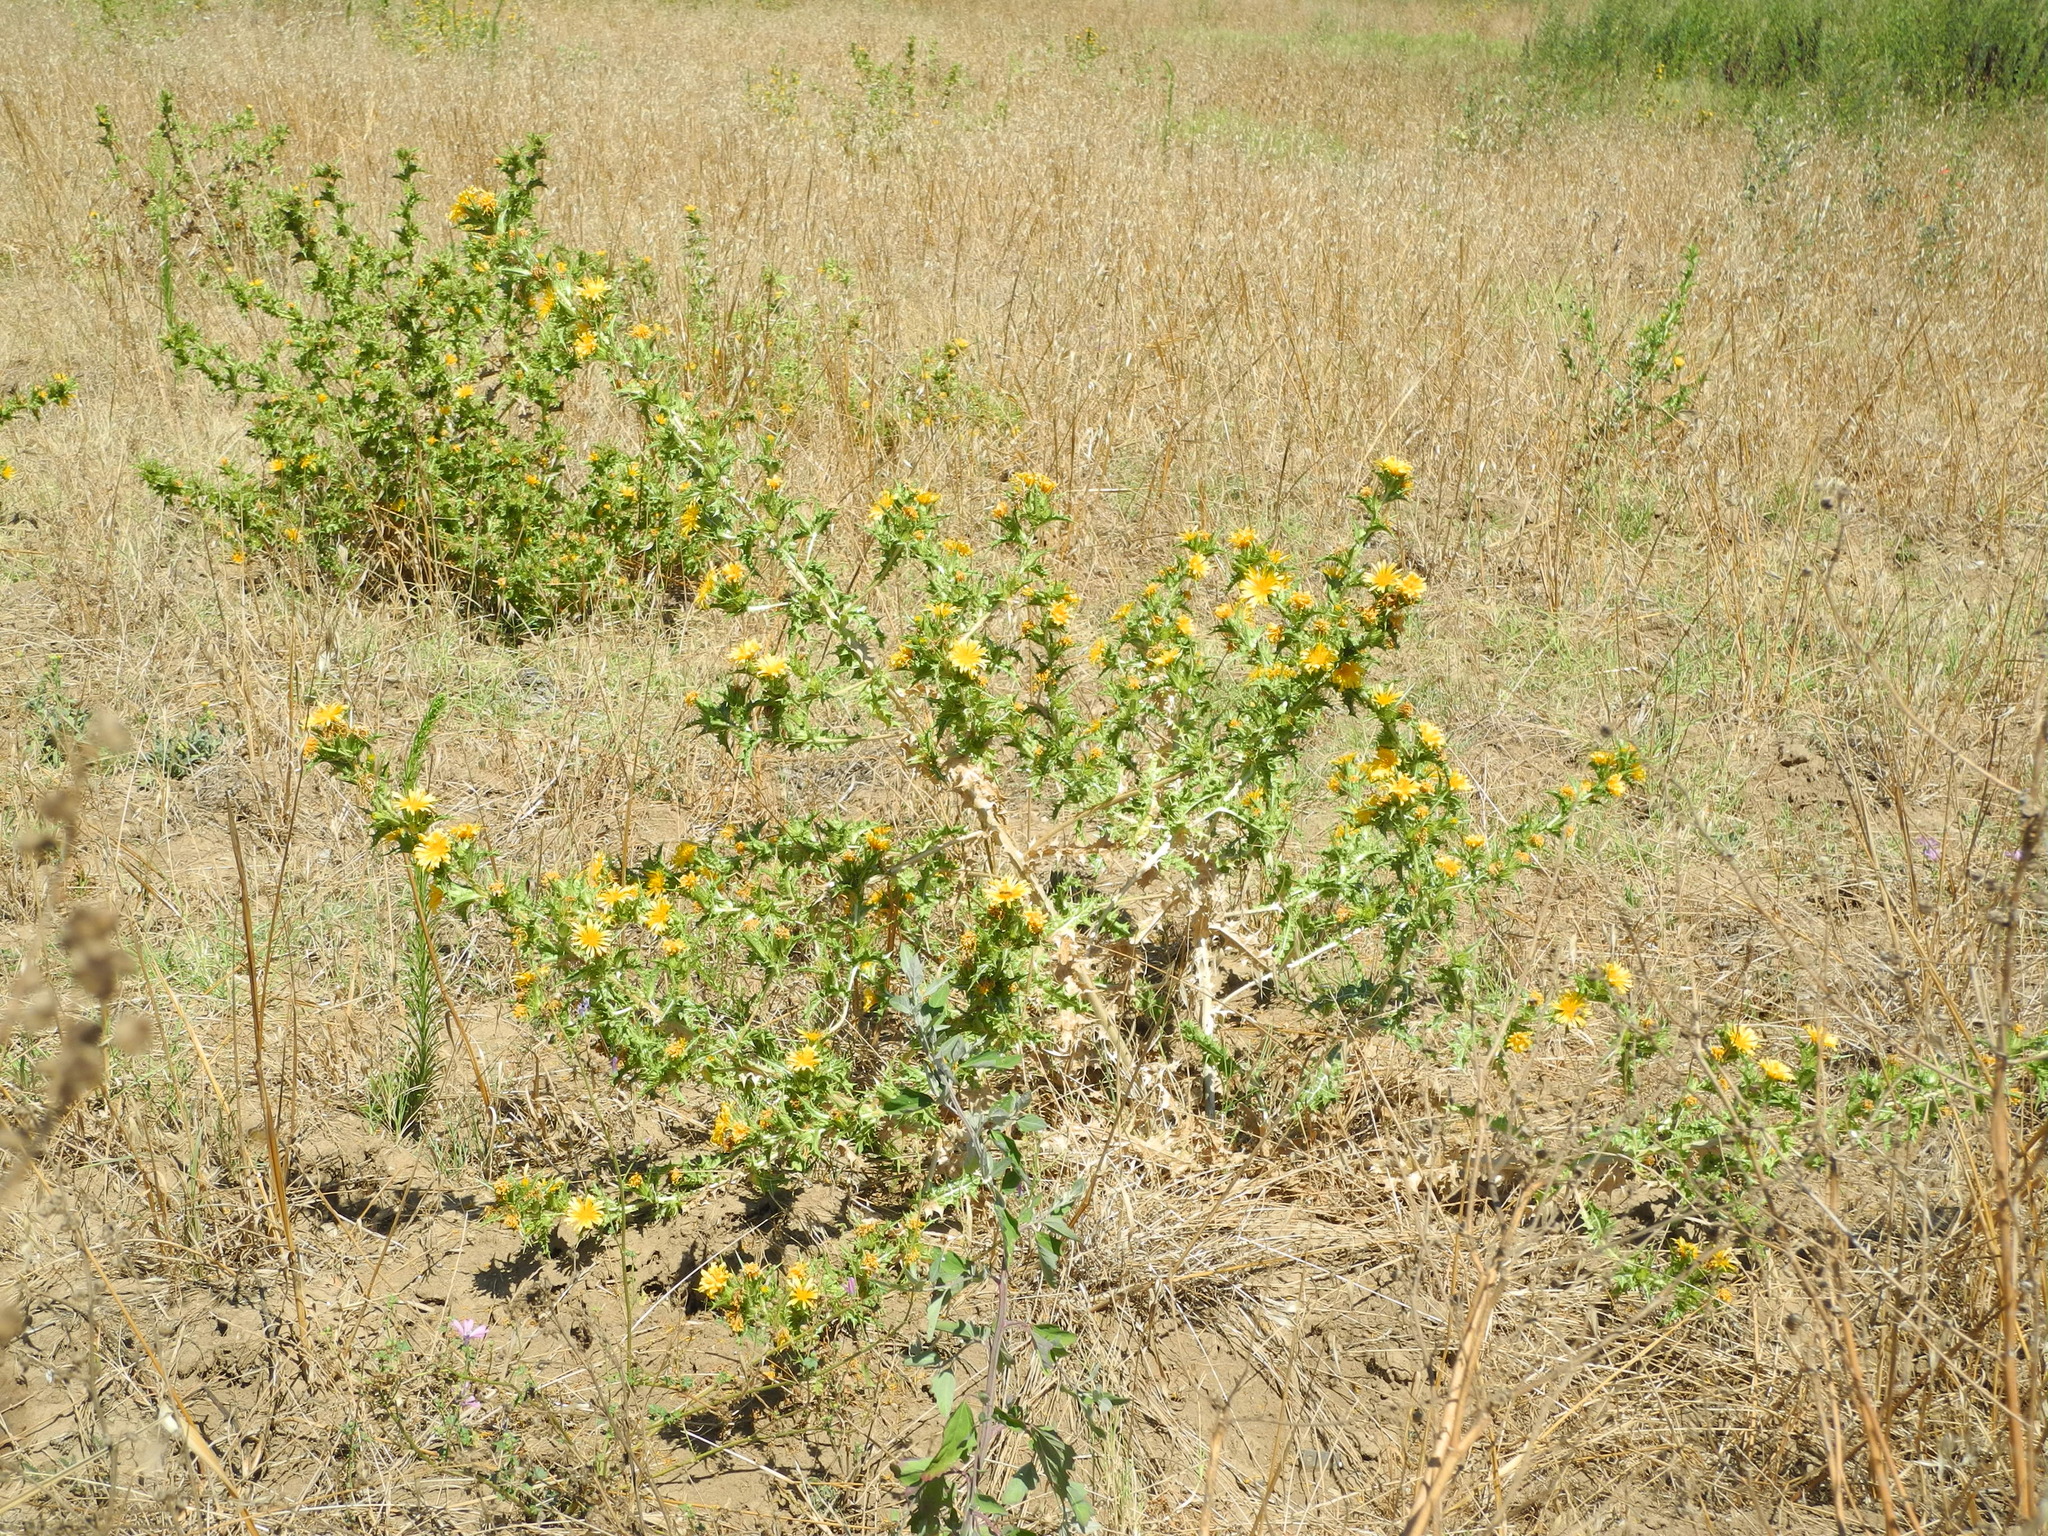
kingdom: Plantae
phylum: Tracheophyta
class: Magnoliopsida
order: Asterales
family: Asteraceae
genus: Scolymus
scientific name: Scolymus hispanicus
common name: Golden thistle
